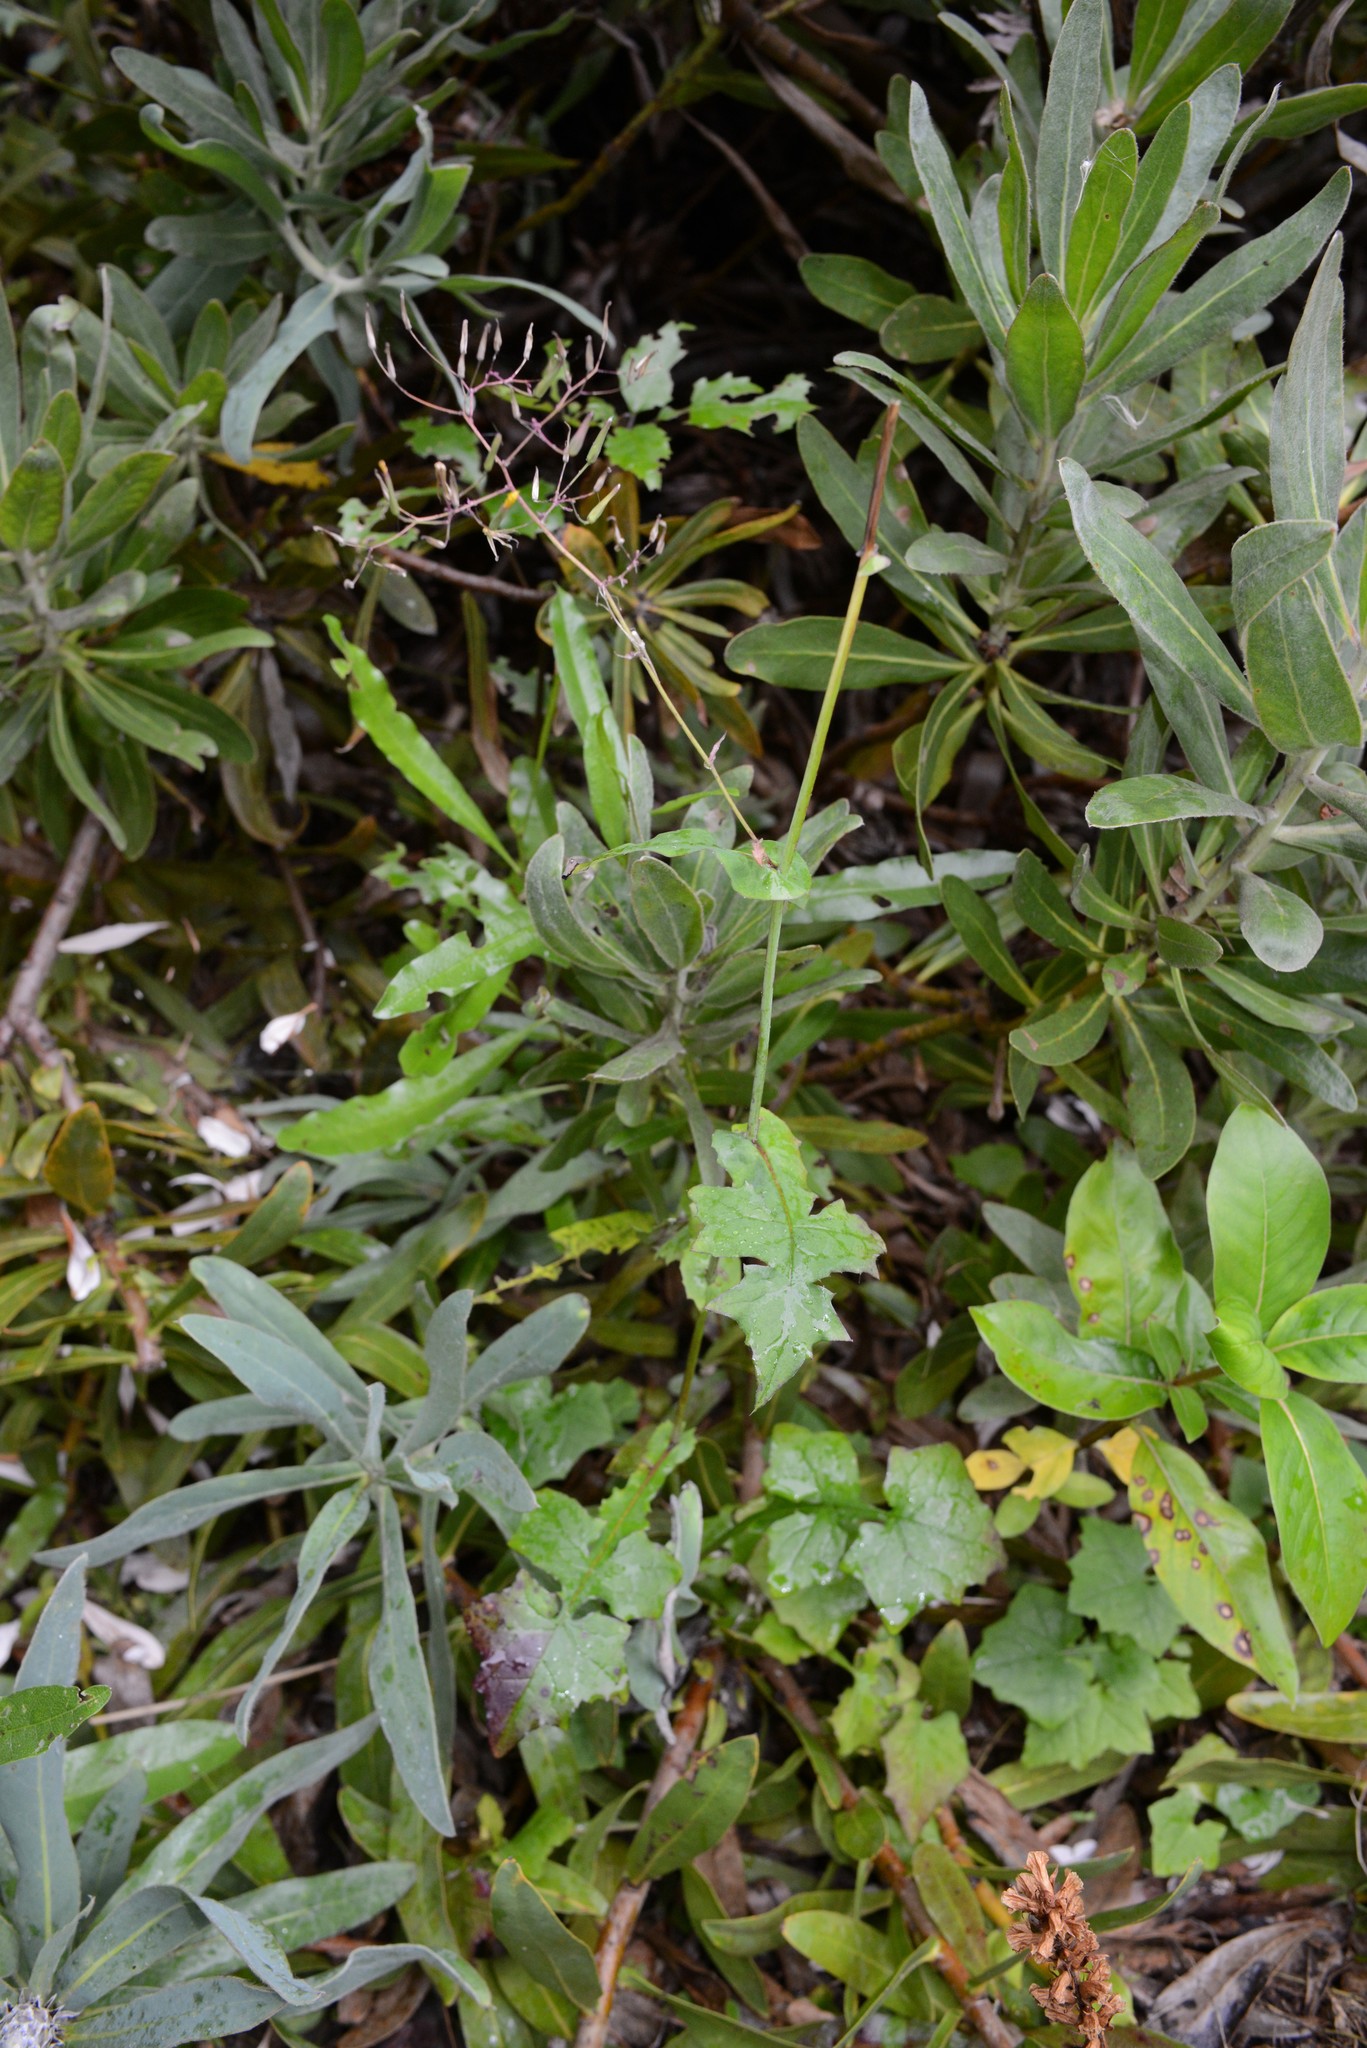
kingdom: Plantae
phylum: Tracheophyta
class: Magnoliopsida
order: Asterales
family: Asteraceae
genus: Mycelis
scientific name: Mycelis muralis
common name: Wall lettuce
